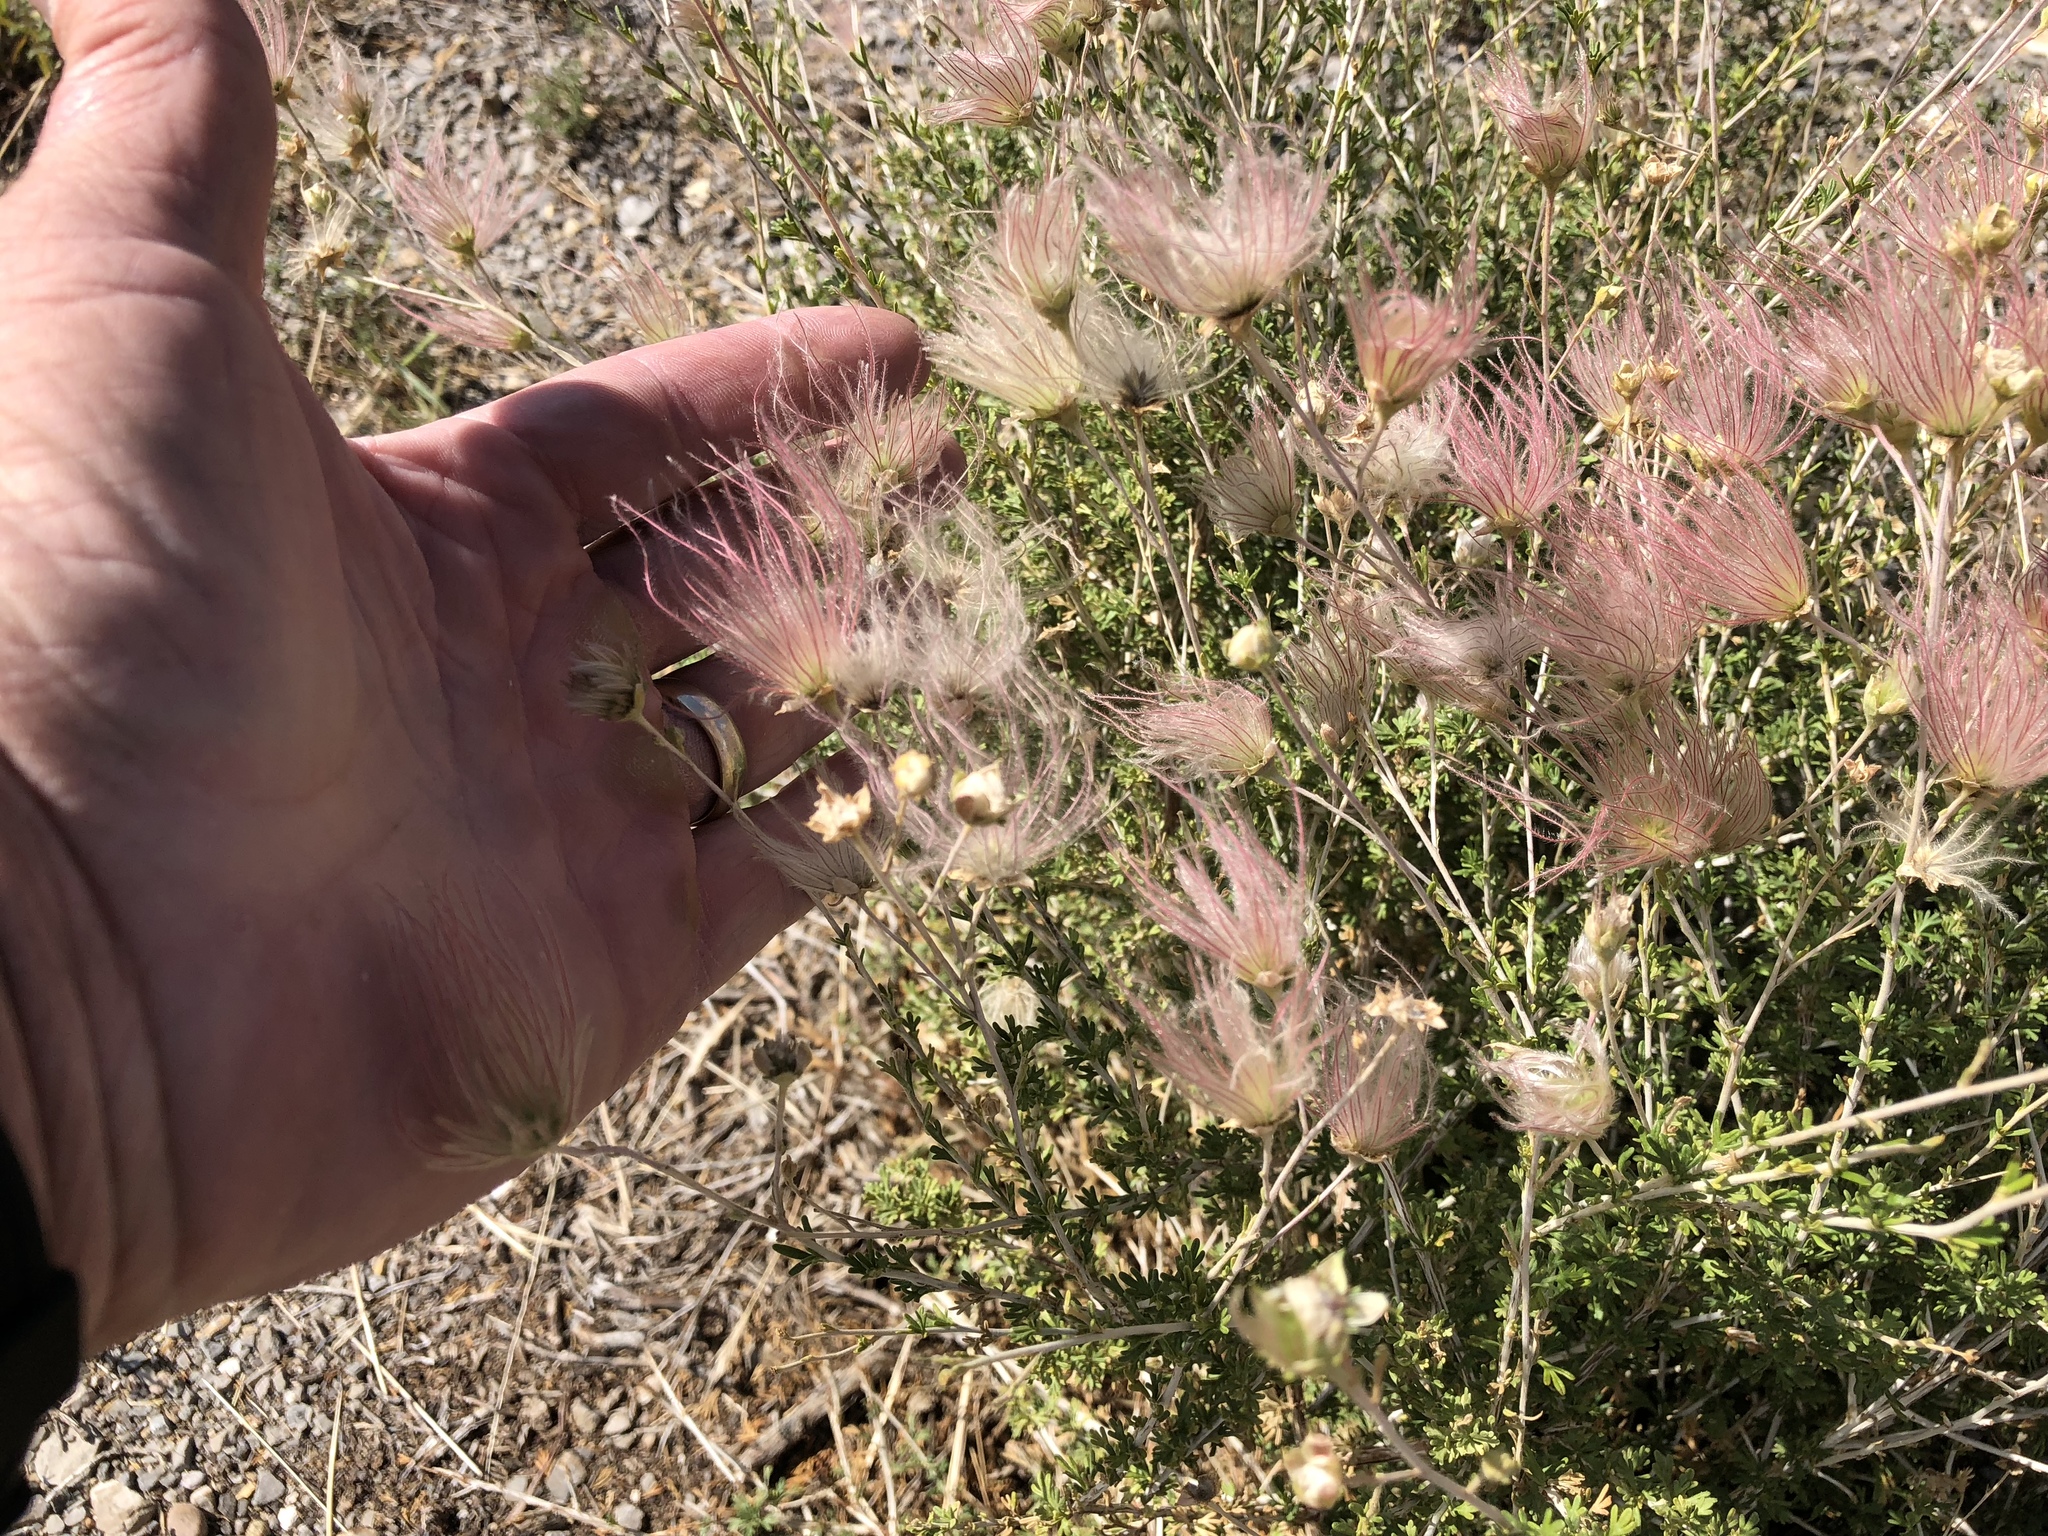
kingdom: Plantae
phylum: Tracheophyta
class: Magnoliopsida
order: Rosales
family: Rosaceae
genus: Fallugia
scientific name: Fallugia paradoxa
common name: Apache-plume
